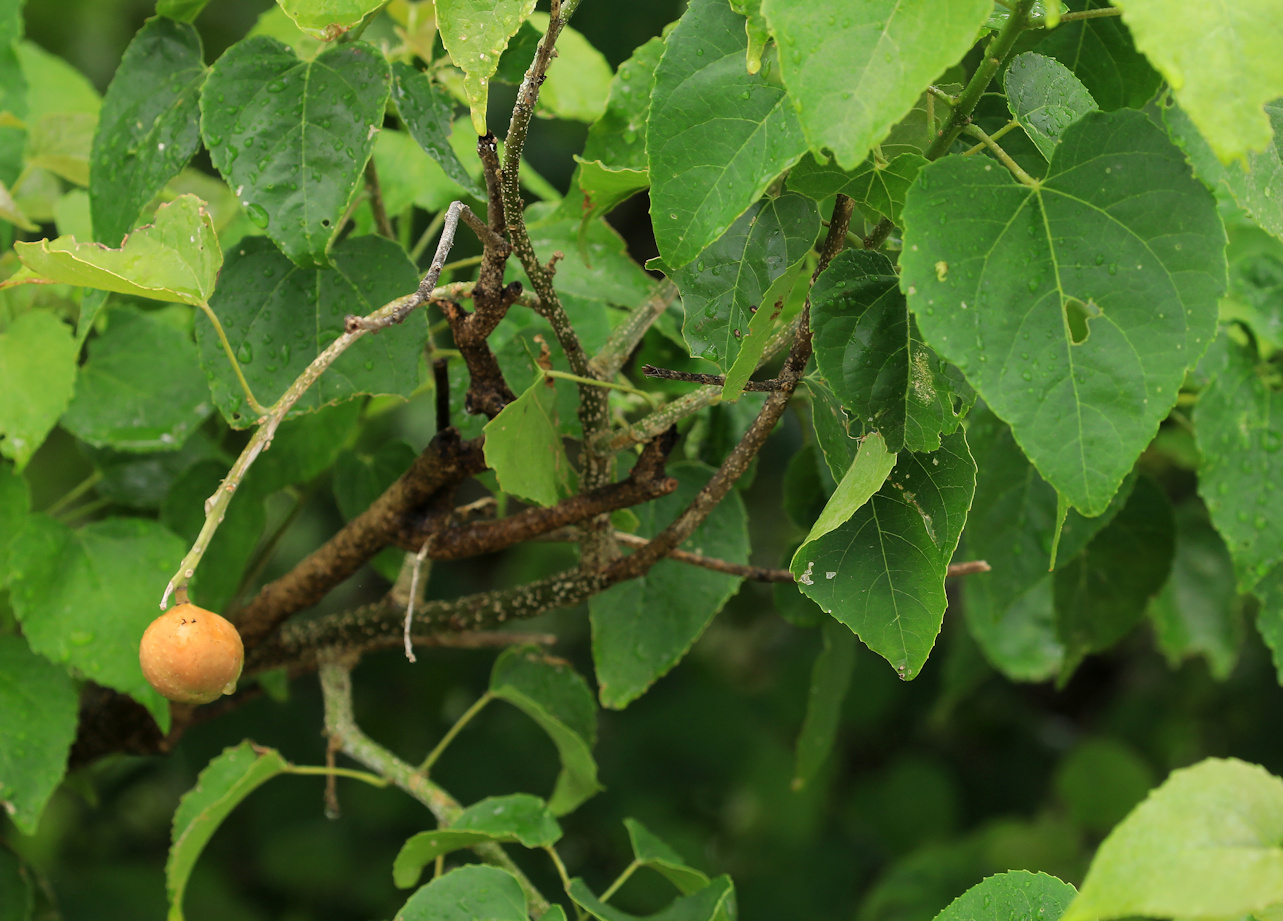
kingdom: Plantae
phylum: Tracheophyta
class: Magnoliopsida
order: Malpighiales
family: Euphorbiaceae
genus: Croton
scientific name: Croton megalobotrys
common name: Large fever berry
